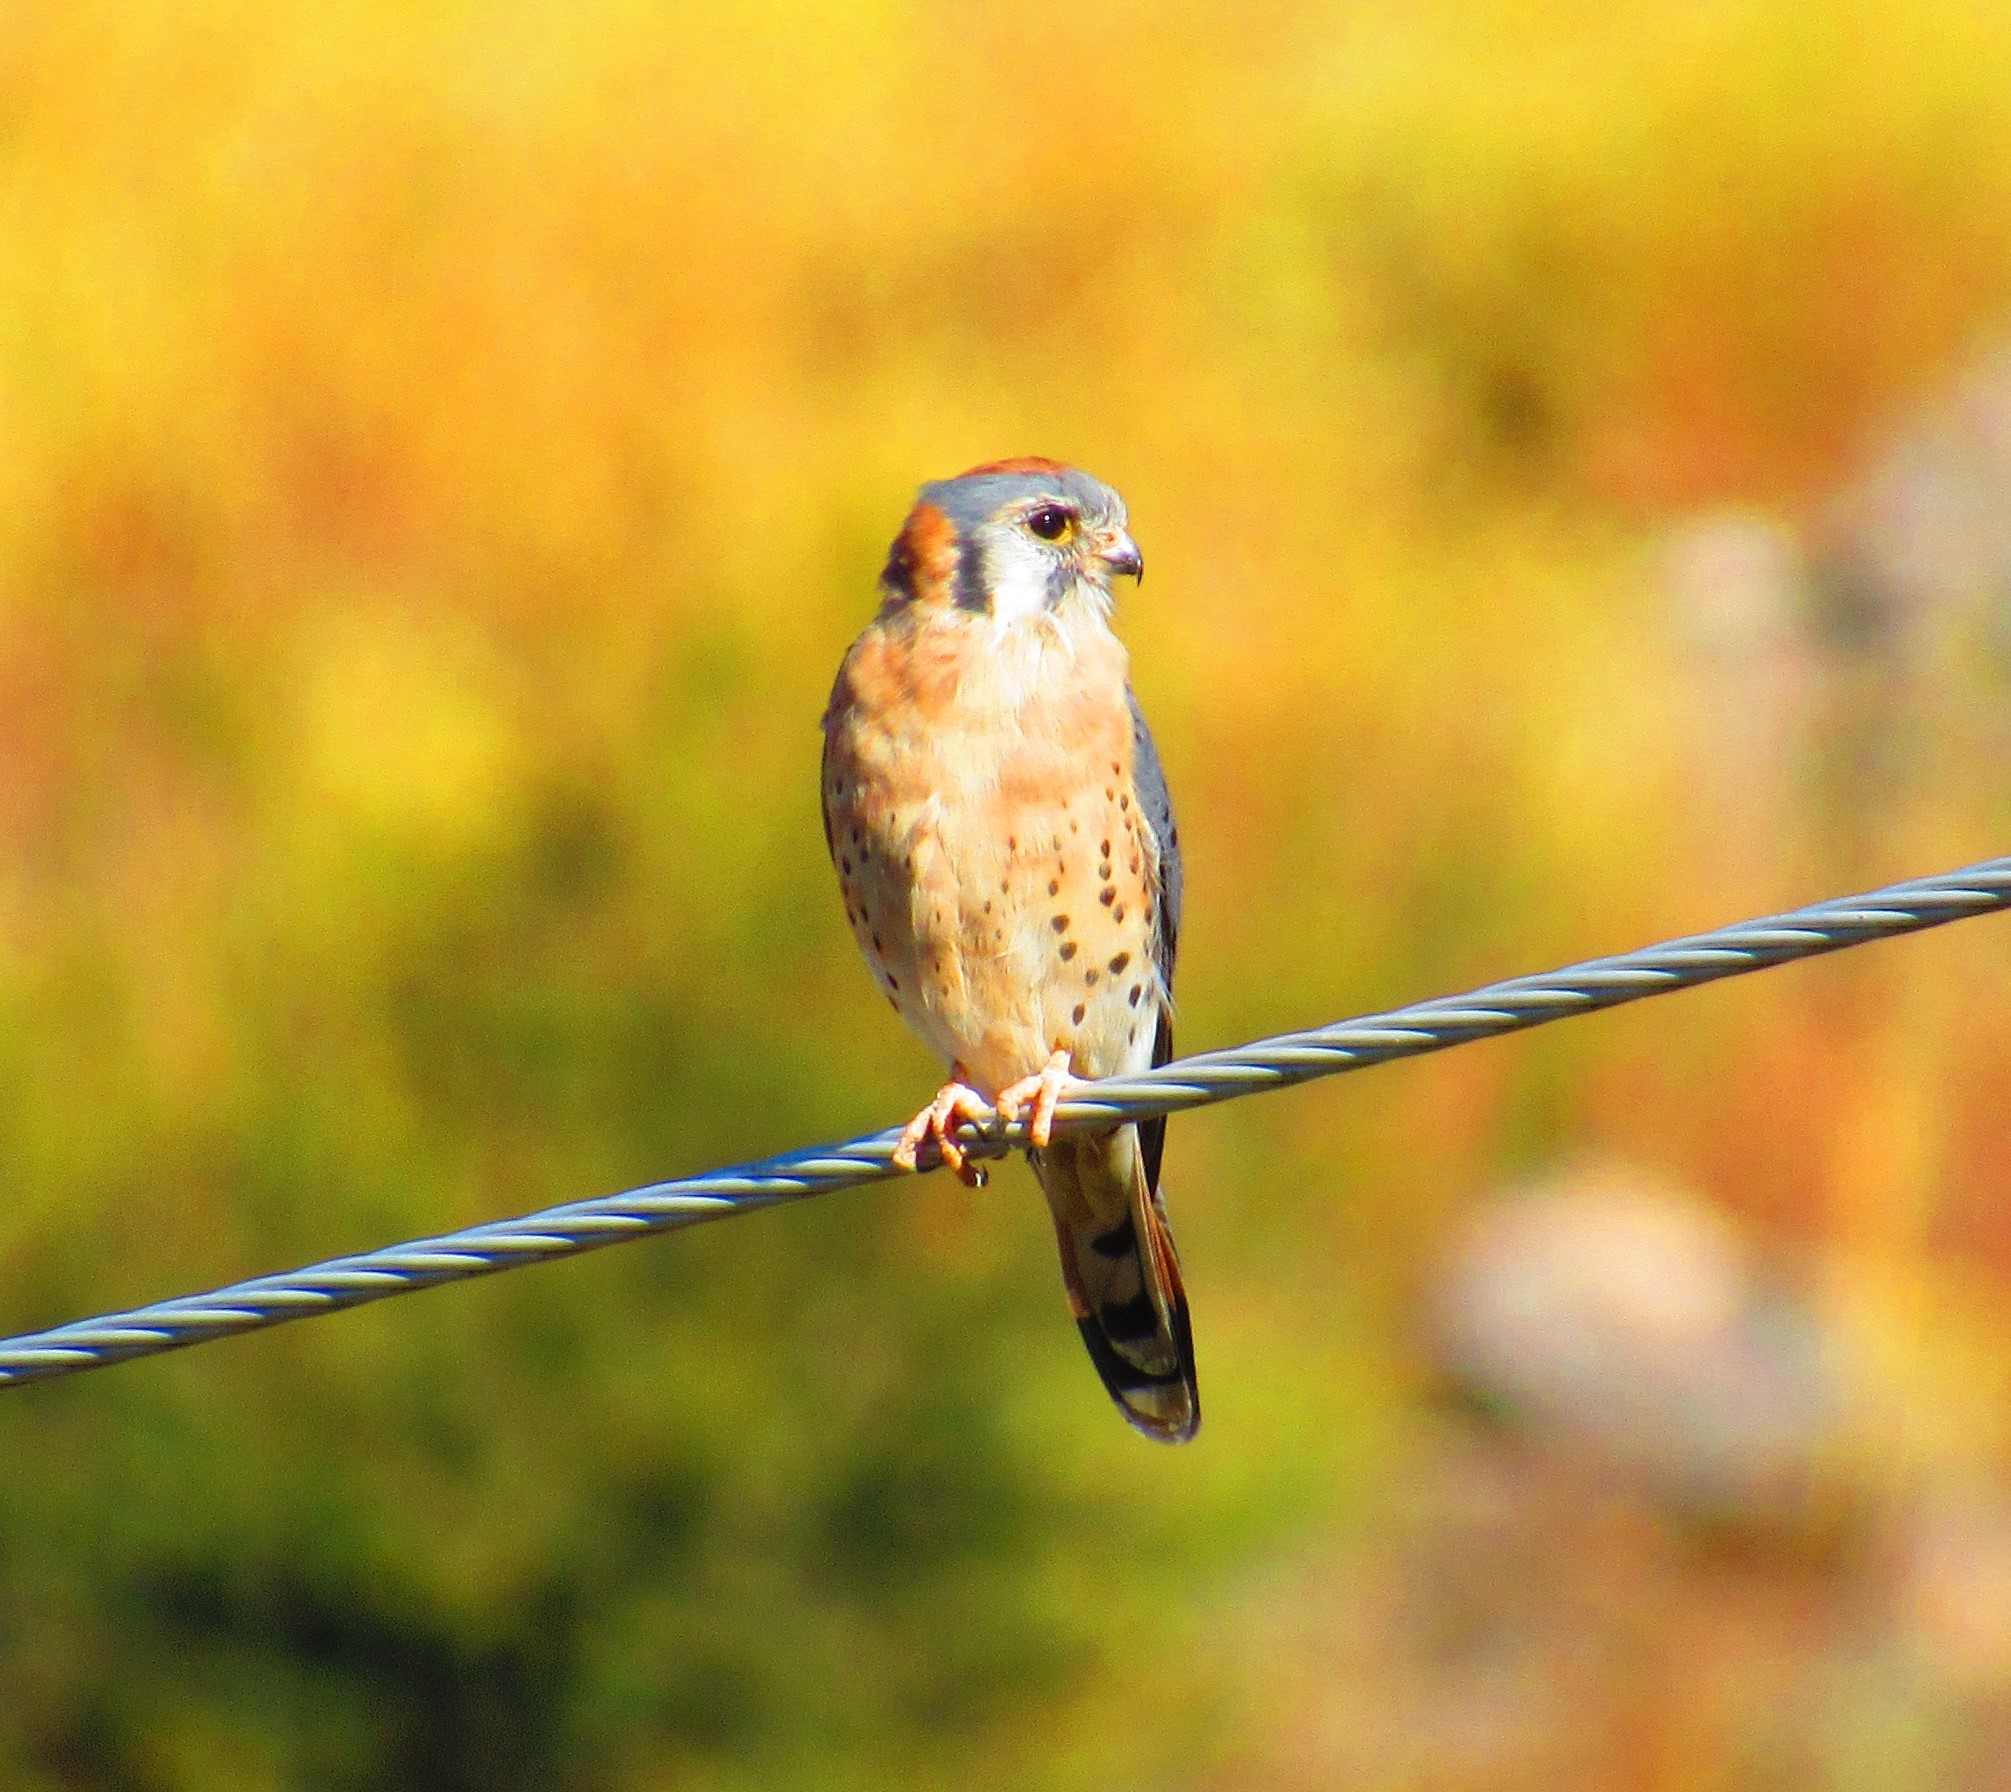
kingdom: Animalia
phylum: Chordata
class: Aves
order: Falconiformes
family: Falconidae
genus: Falco
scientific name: Falco sparverius
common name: American kestrel
